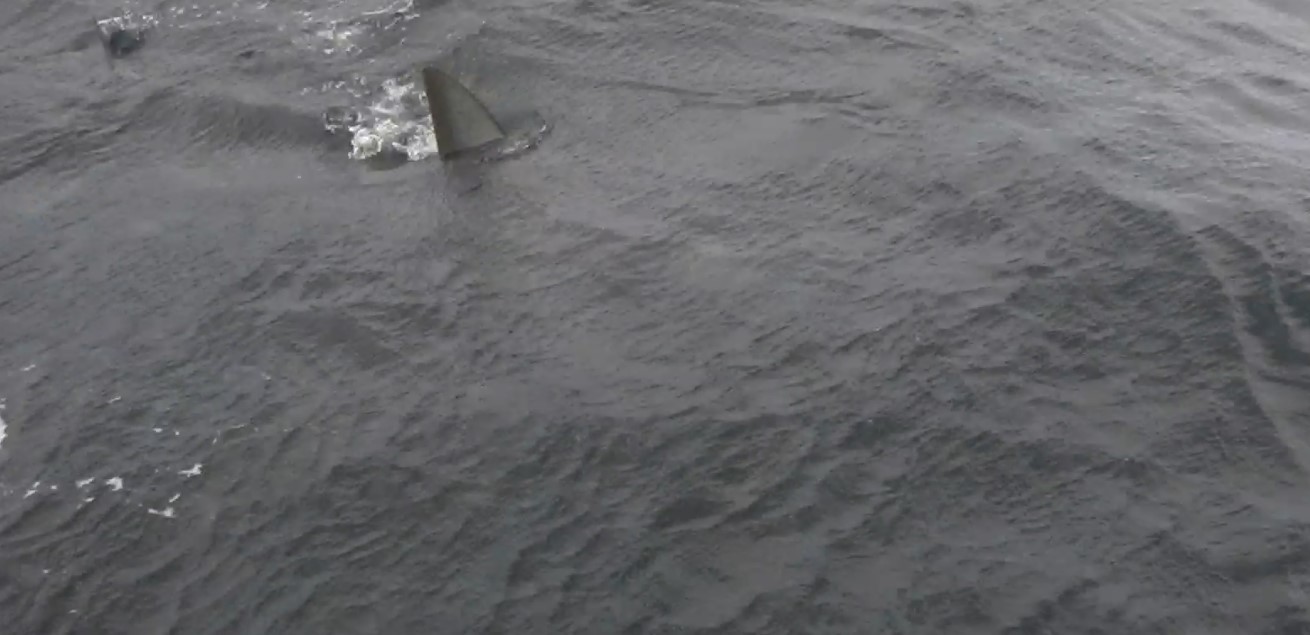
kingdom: Animalia
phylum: Chordata
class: Elasmobranchii
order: Lamniformes
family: Lamnidae
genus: Isurus
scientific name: Isurus oxyrinchus
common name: Shortfin mako
